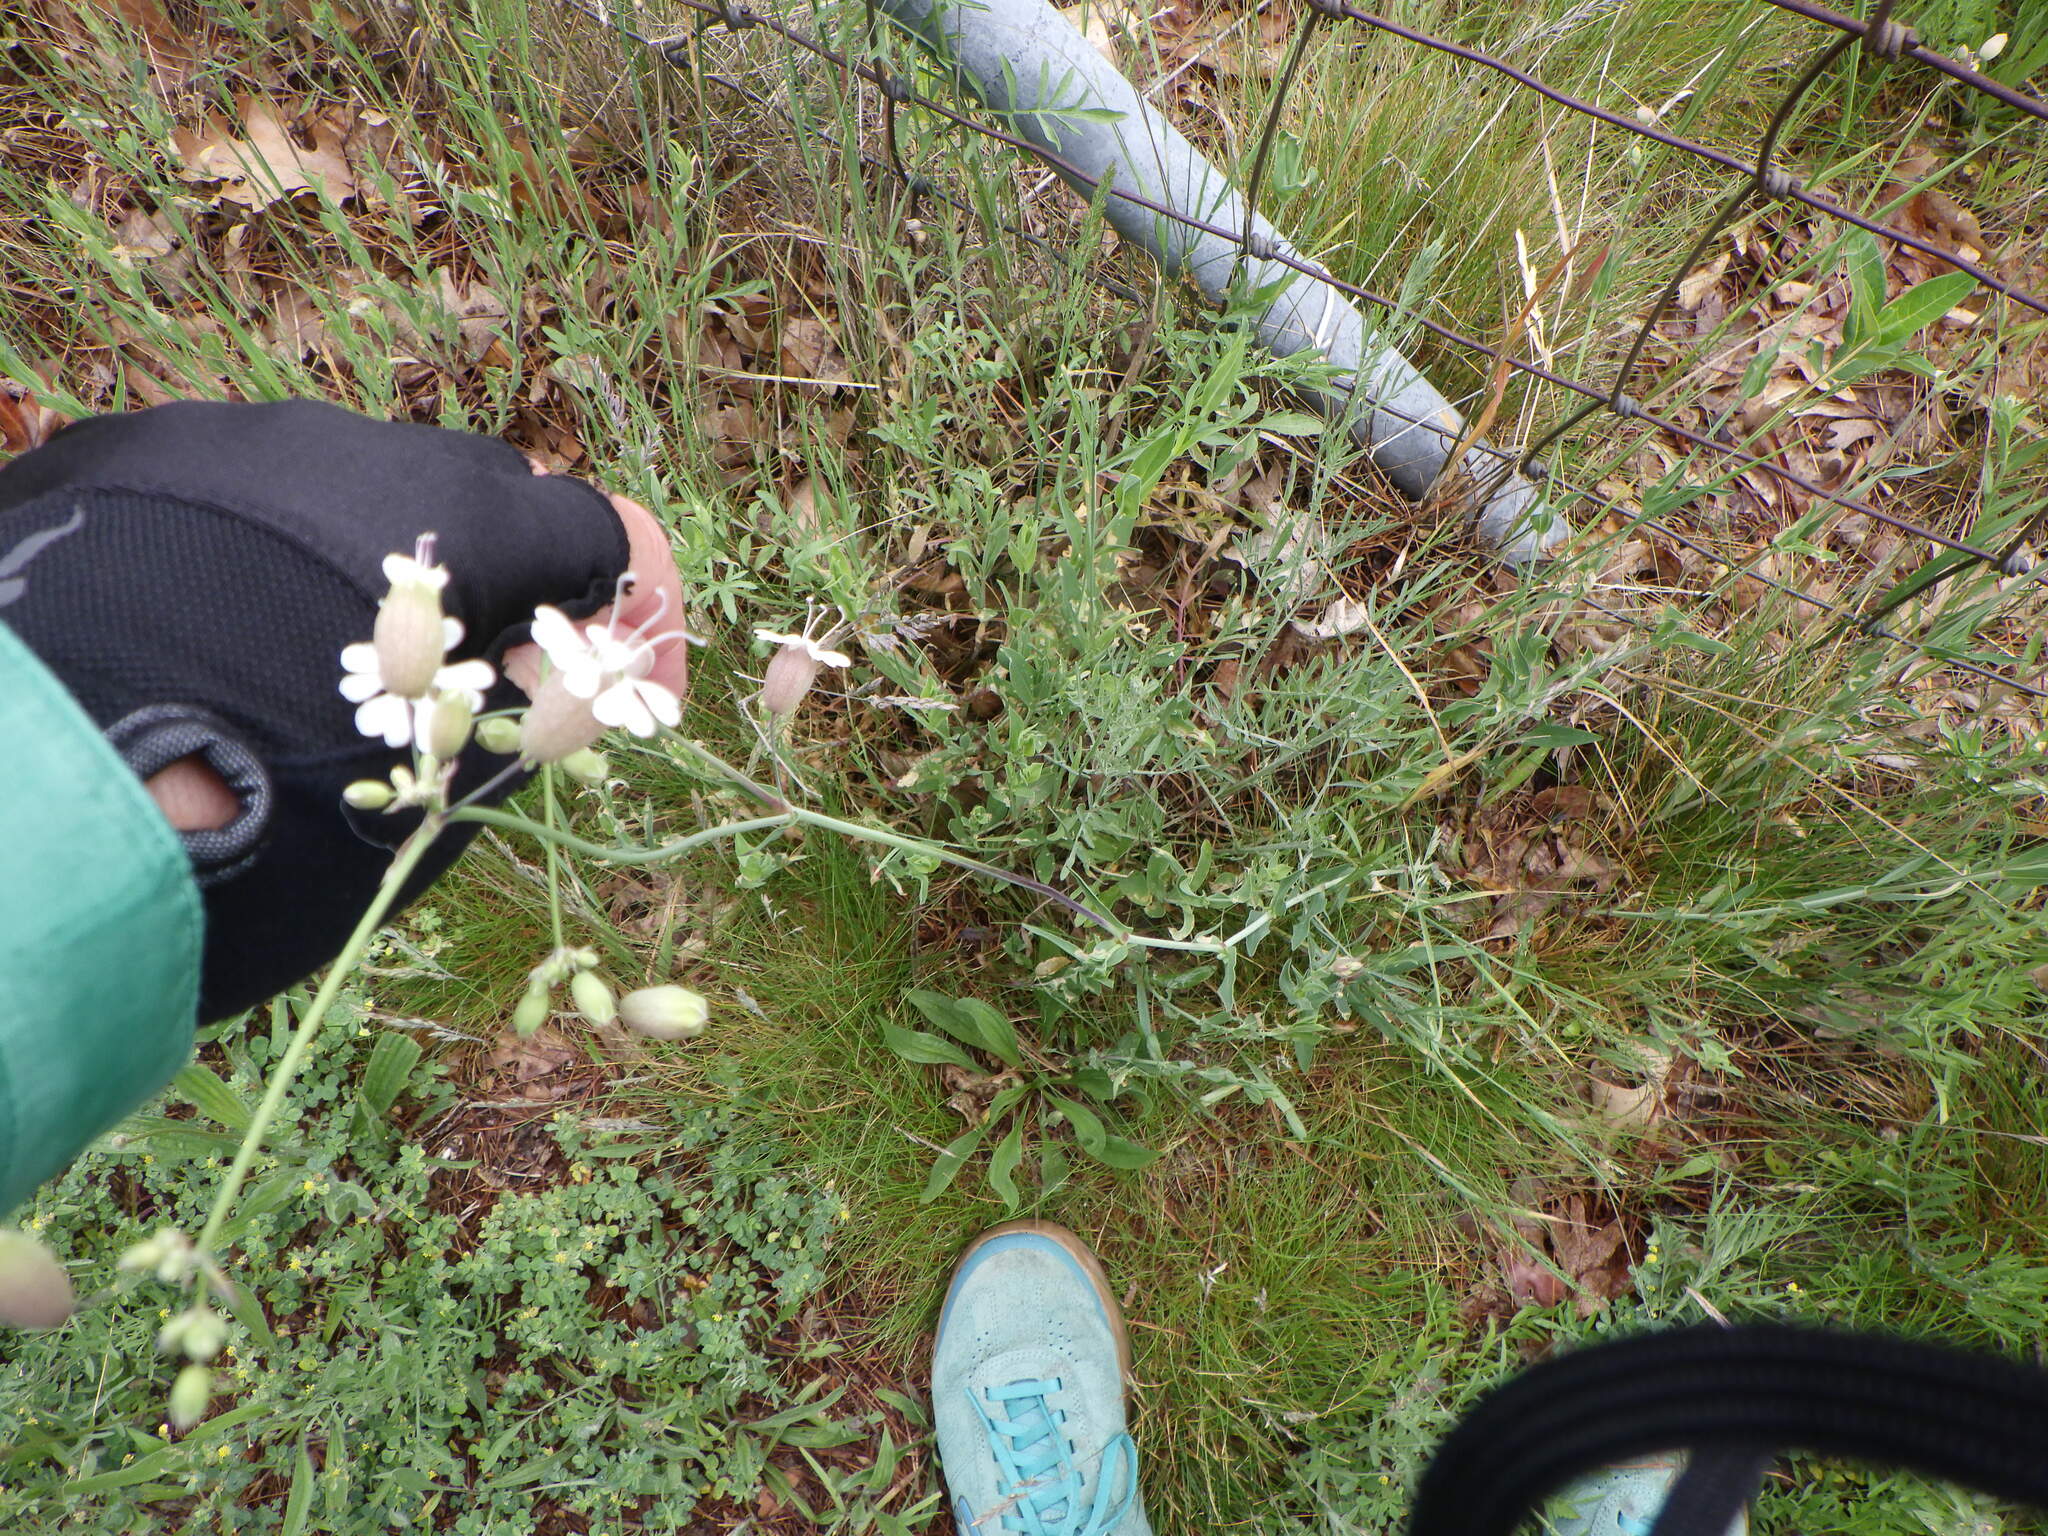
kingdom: Plantae
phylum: Tracheophyta
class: Magnoliopsida
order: Caryophyllales
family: Caryophyllaceae
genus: Silene
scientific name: Silene vulgaris
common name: Bladder campion
